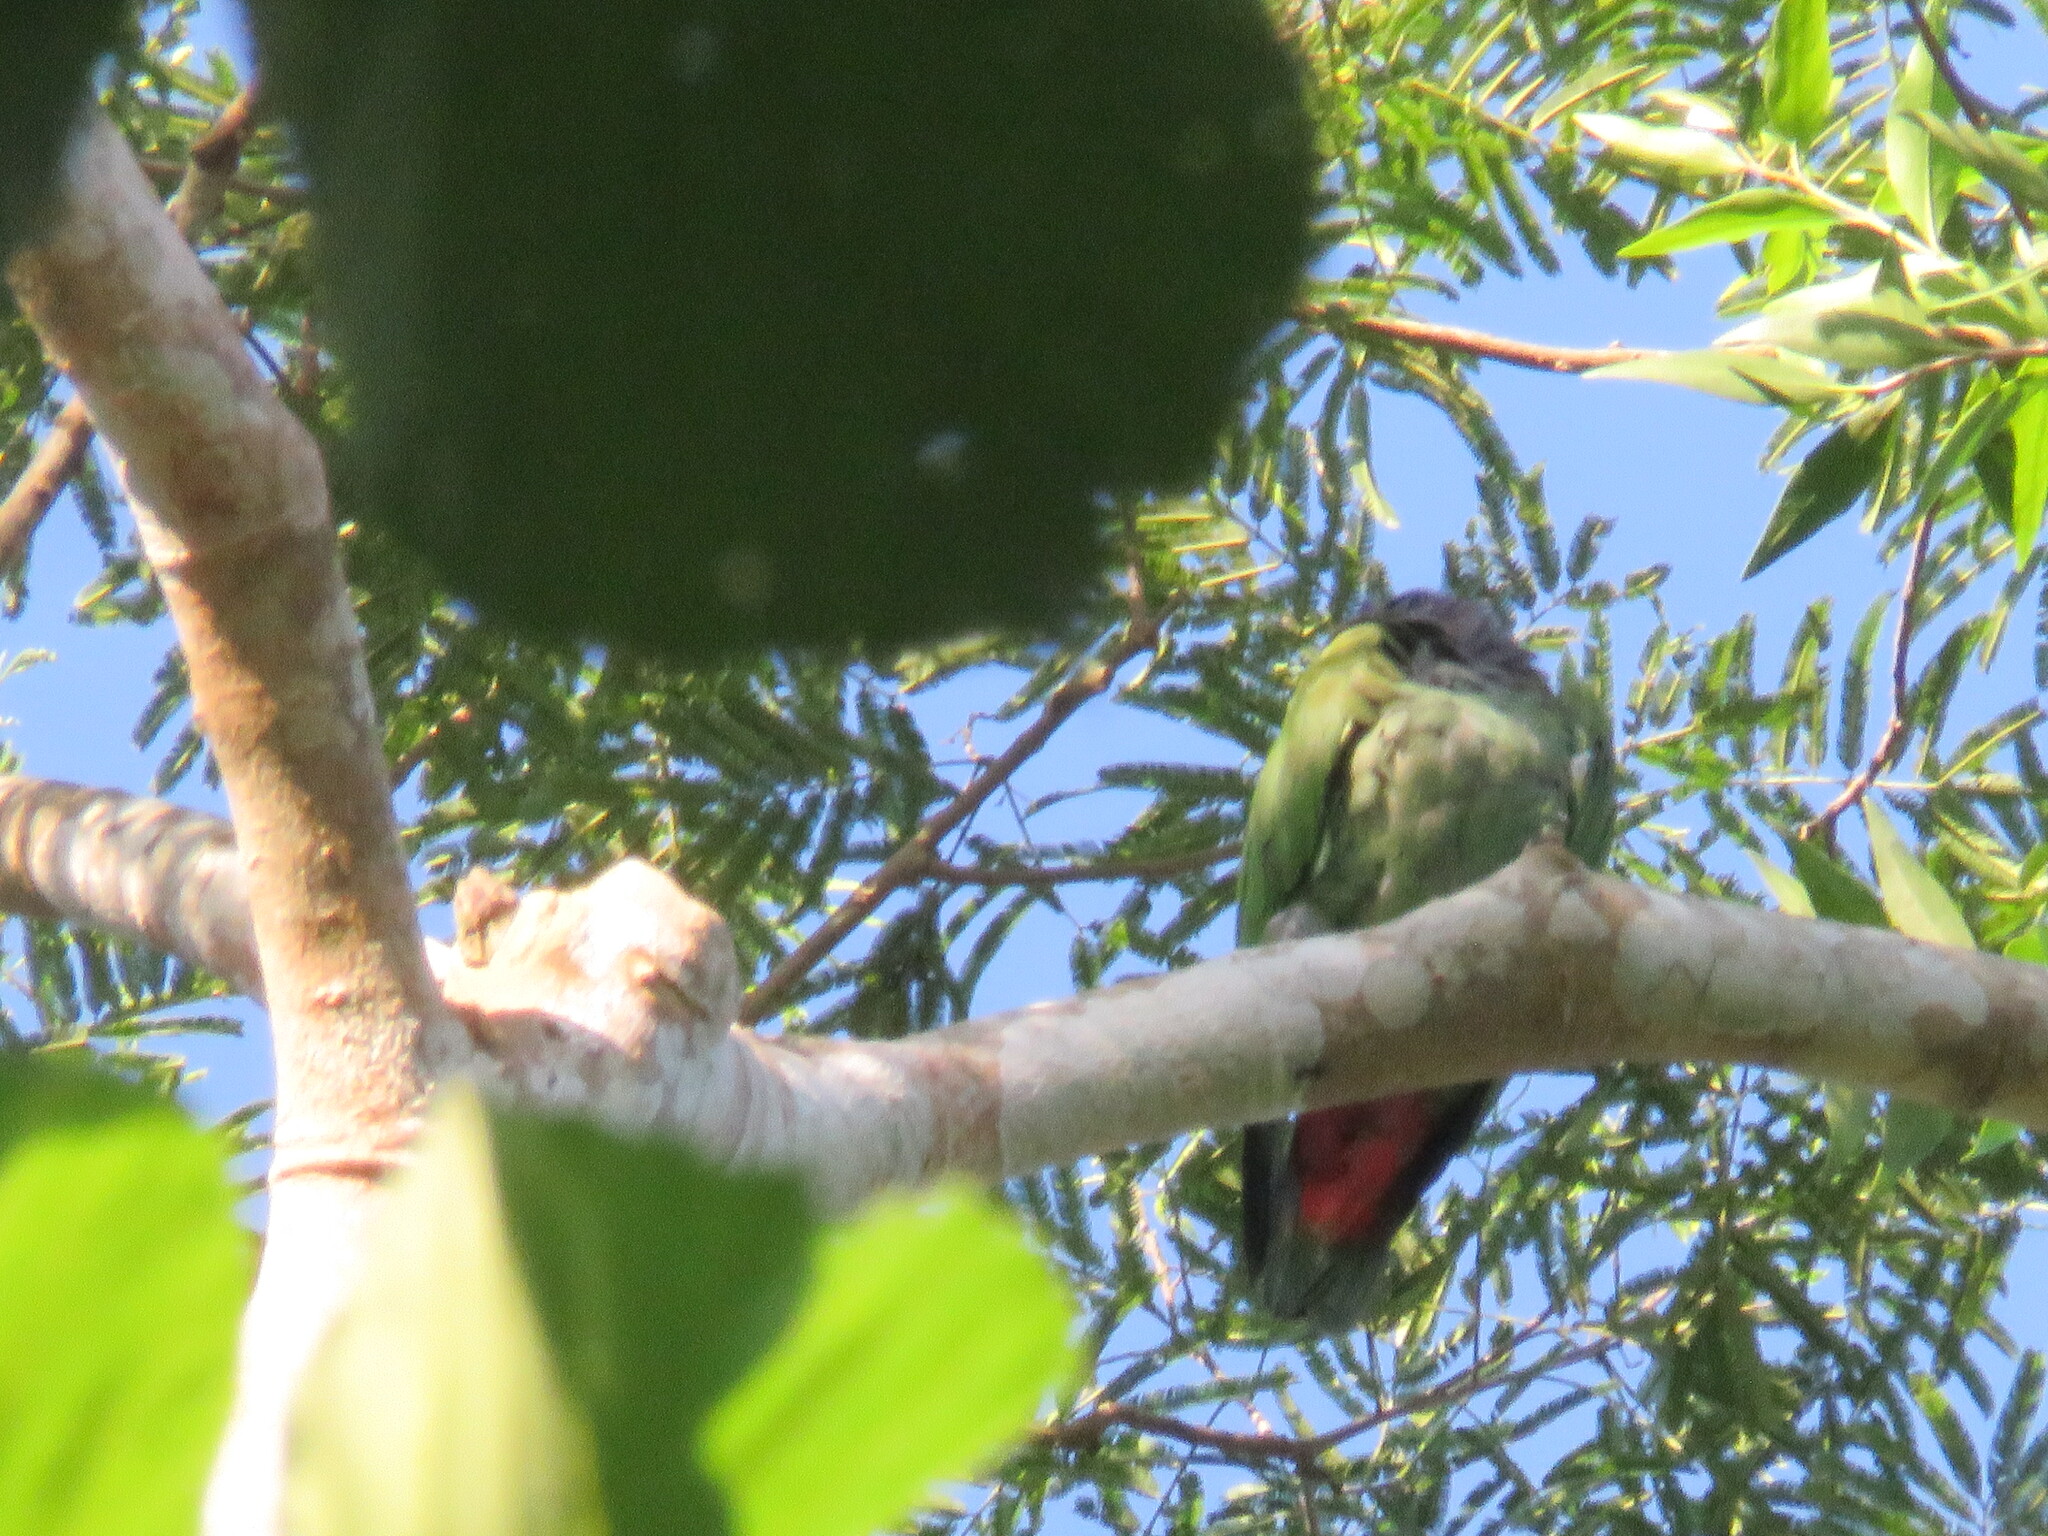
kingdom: Animalia
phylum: Chordata
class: Aves
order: Psittaciformes
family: Psittacidae
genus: Pionus
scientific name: Pionus menstruus
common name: Blue-headed parrot
